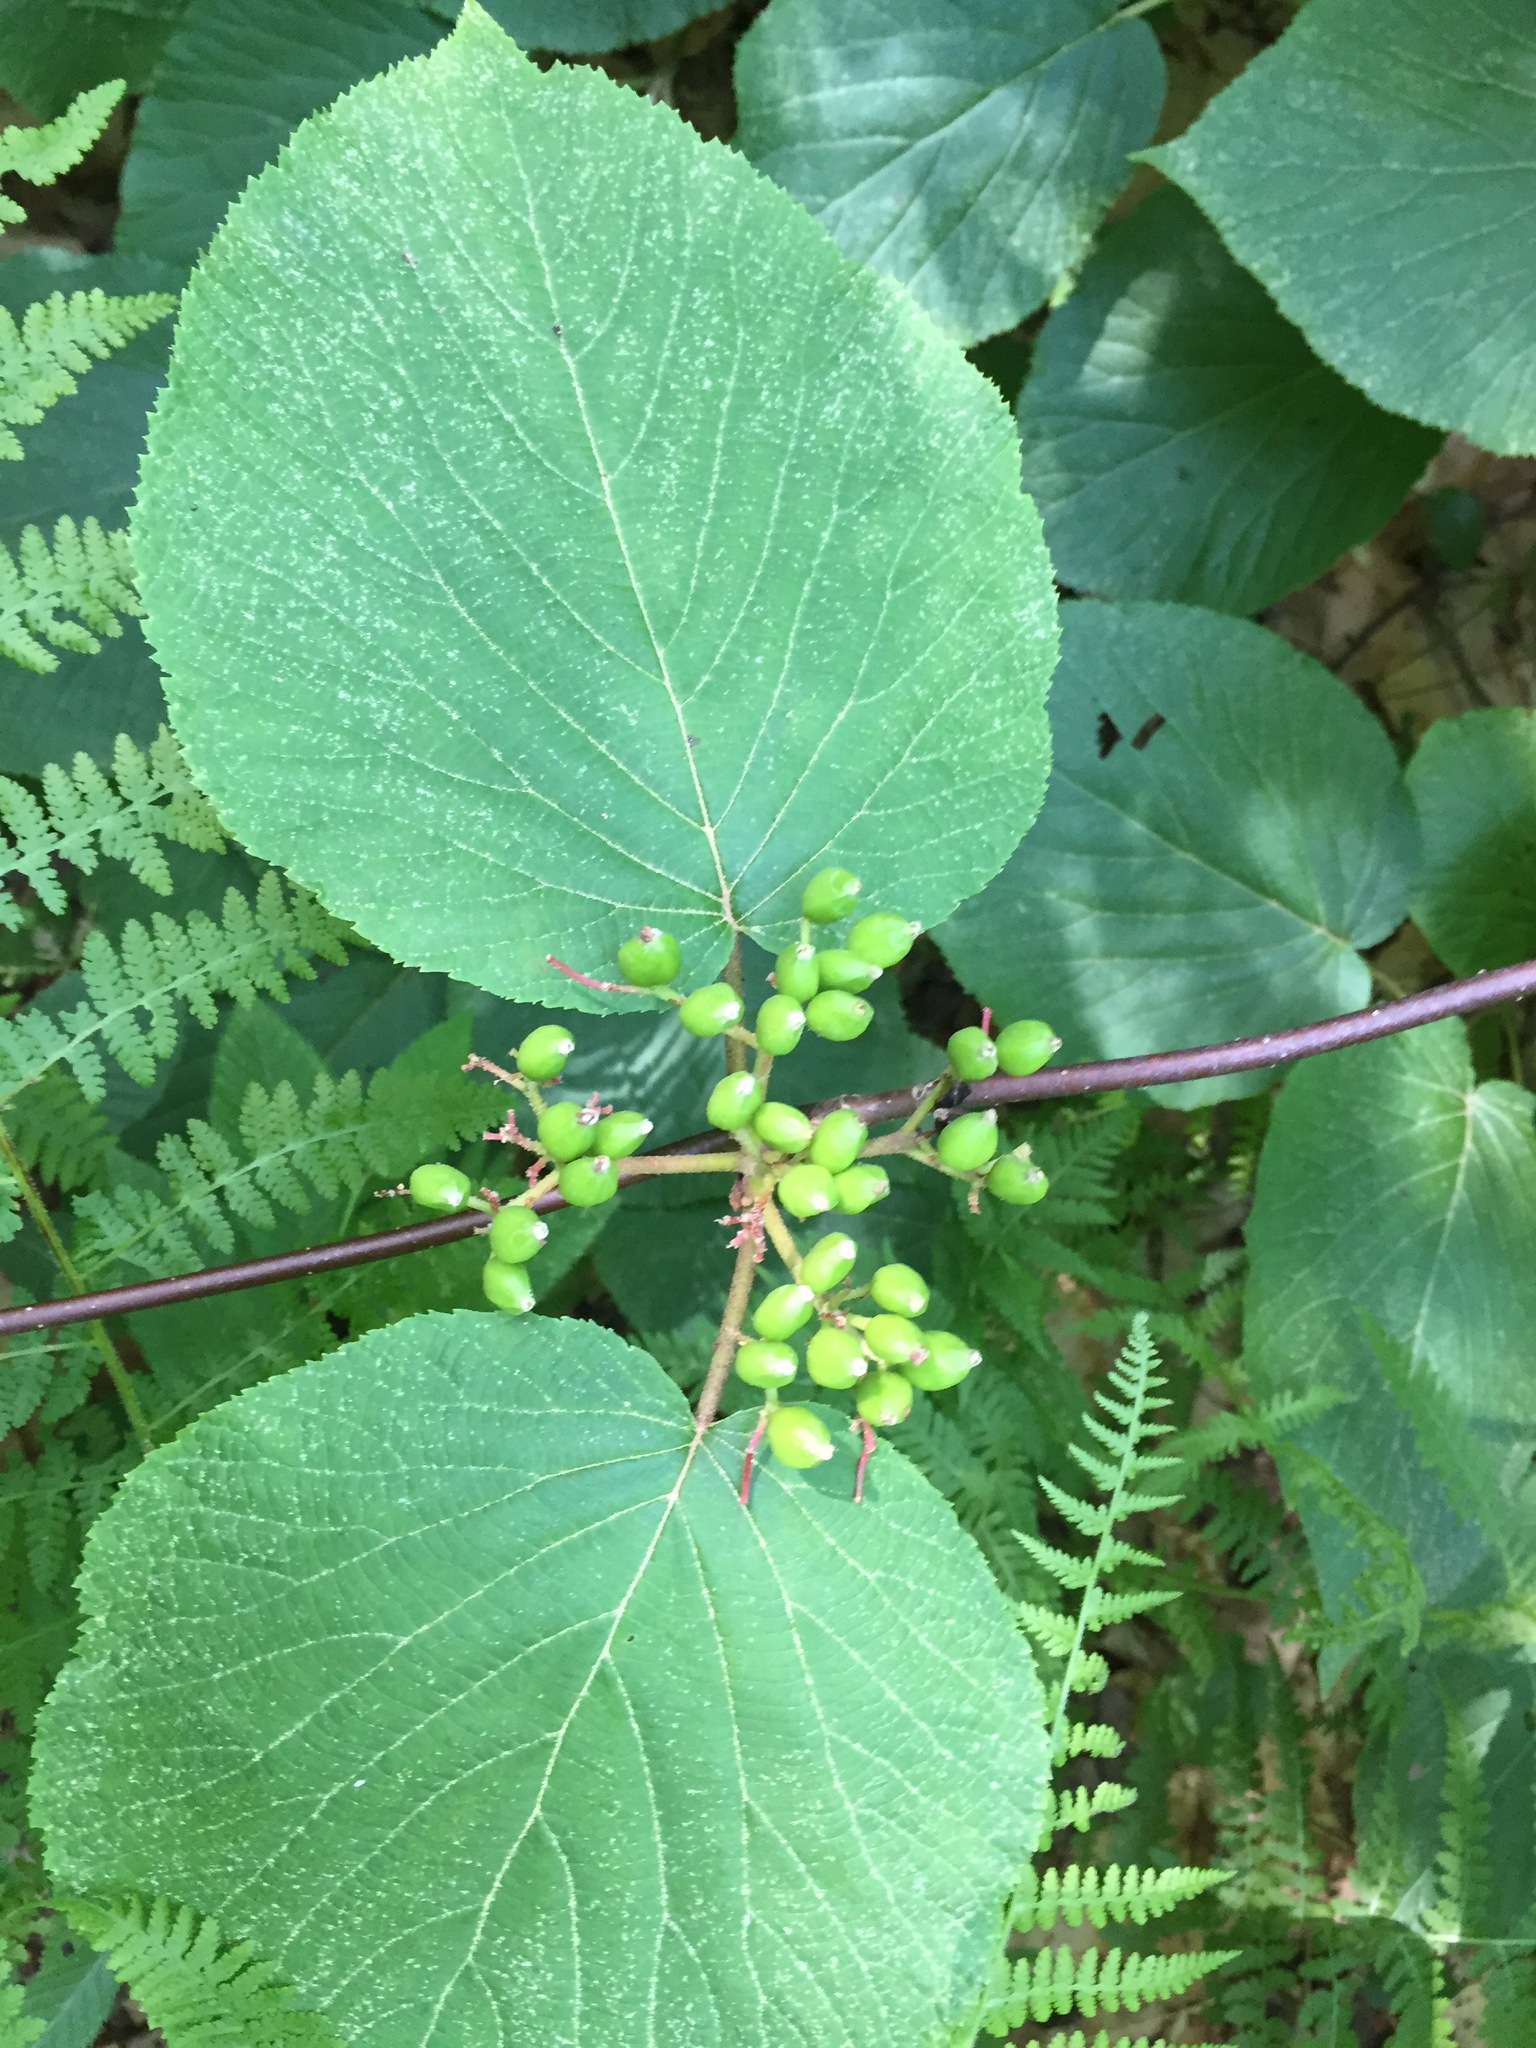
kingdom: Plantae
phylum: Tracheophyta
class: Magnoliopsida
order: Dipsacales
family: Viburnaceae
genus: Viburnum
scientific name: Viburnum lantanoides
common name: Hobblebush
